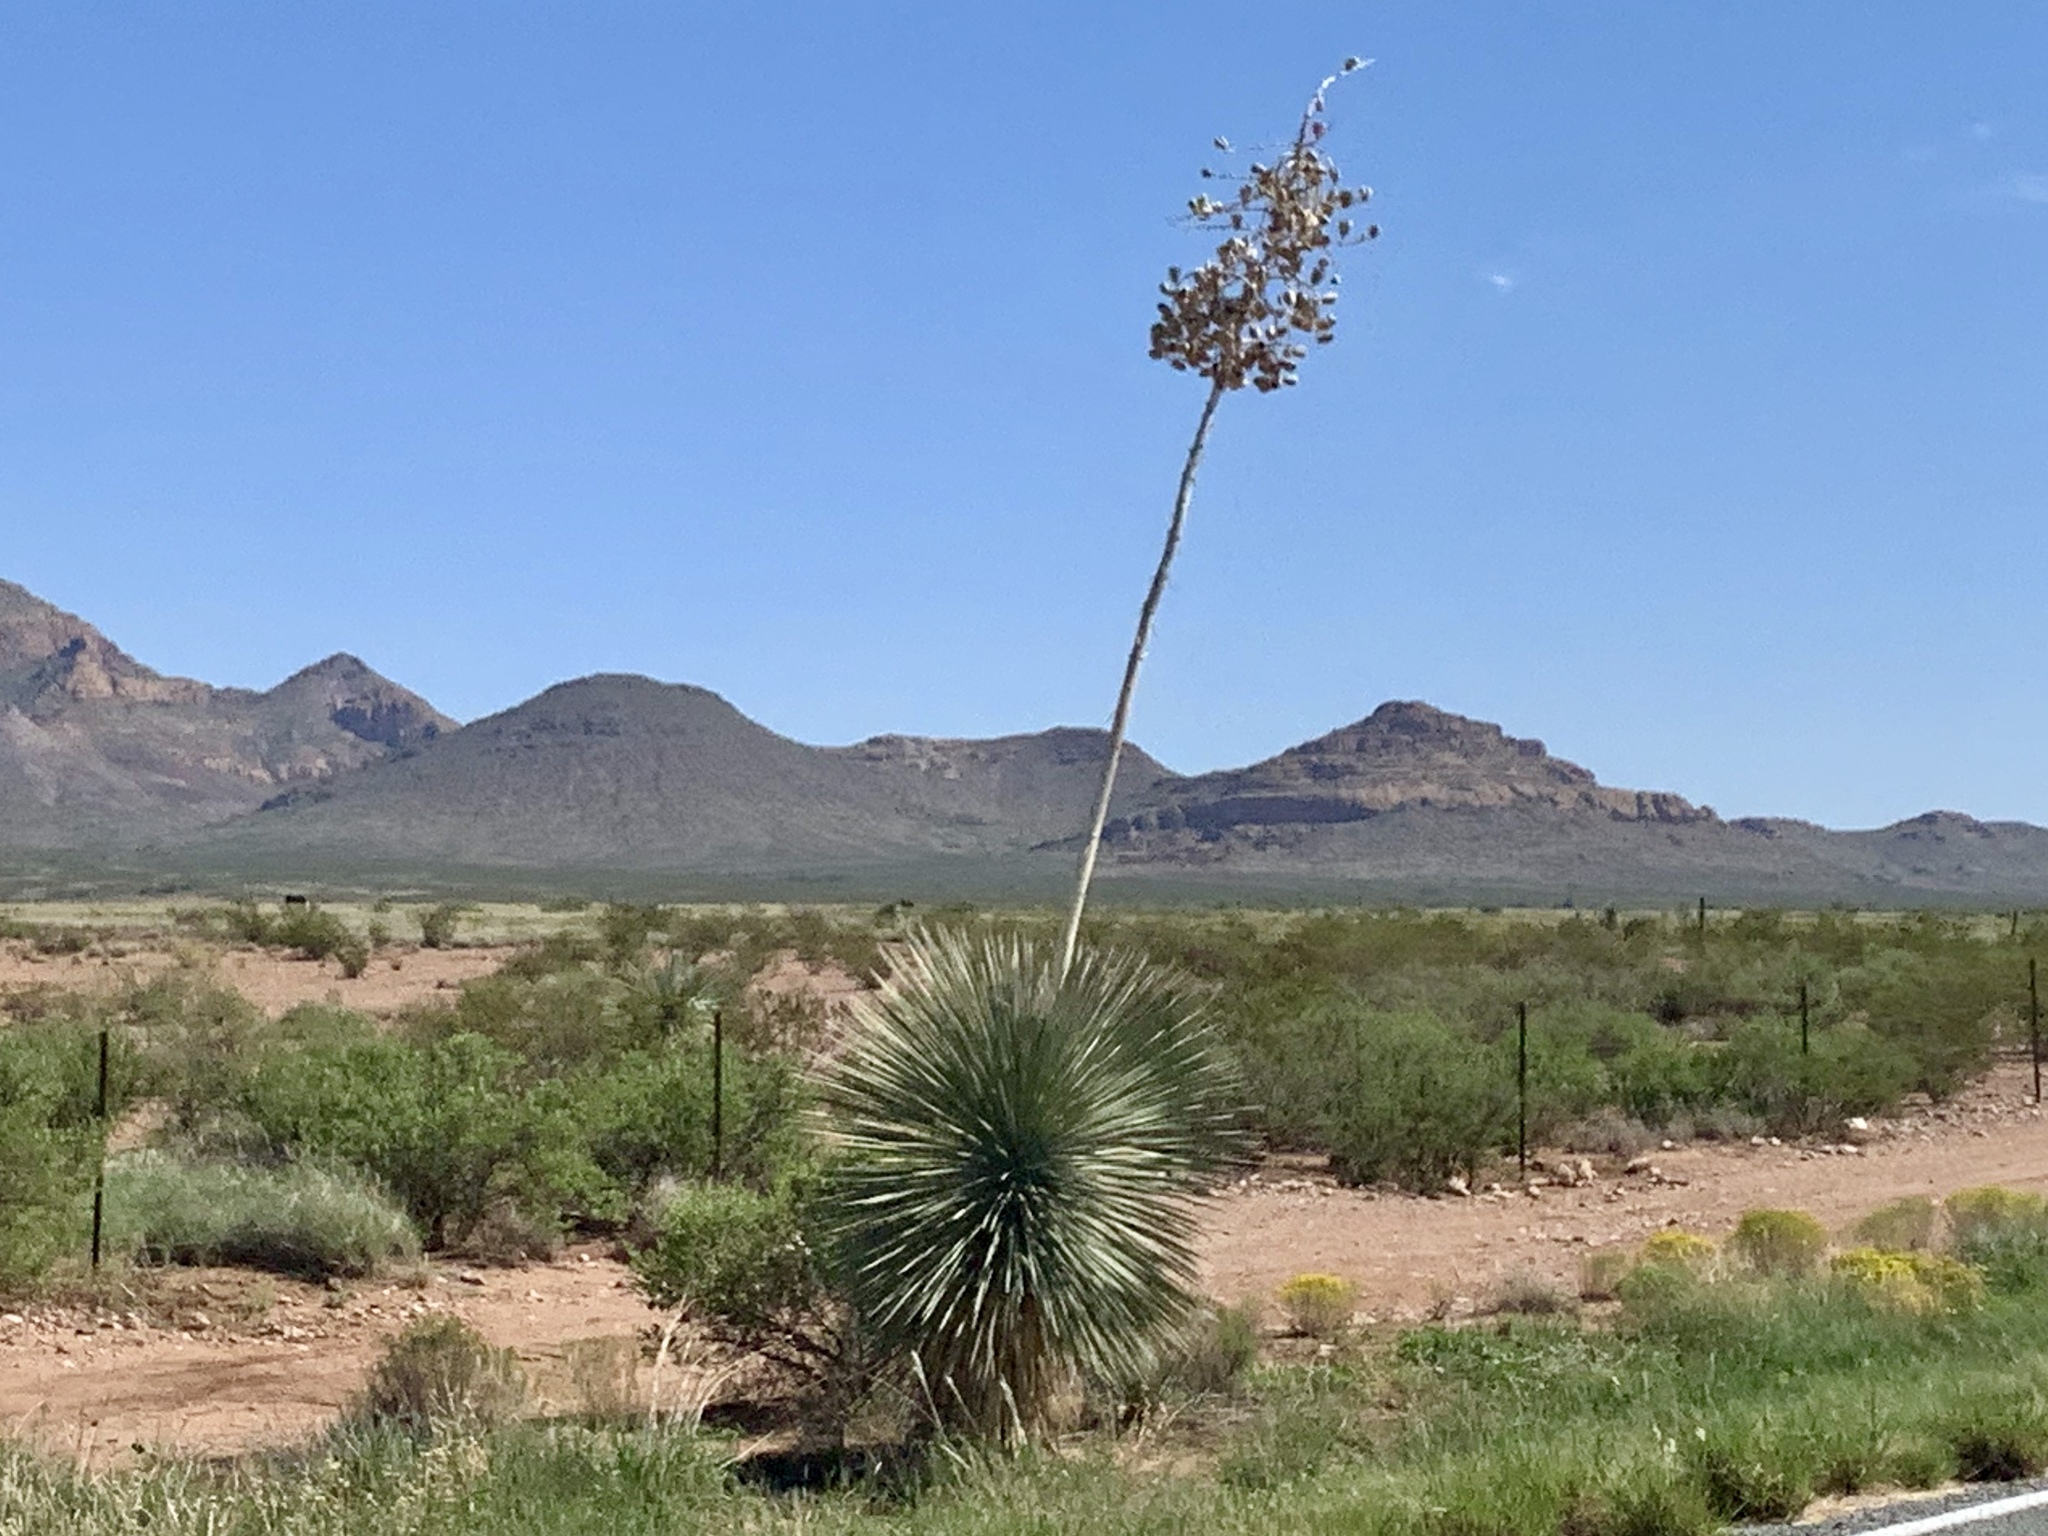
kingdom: Plantae
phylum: Tracheophyta
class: Liliopsida
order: Asparagales
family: Asparagaceae
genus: Yucca
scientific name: Yucca elata
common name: Palmella
